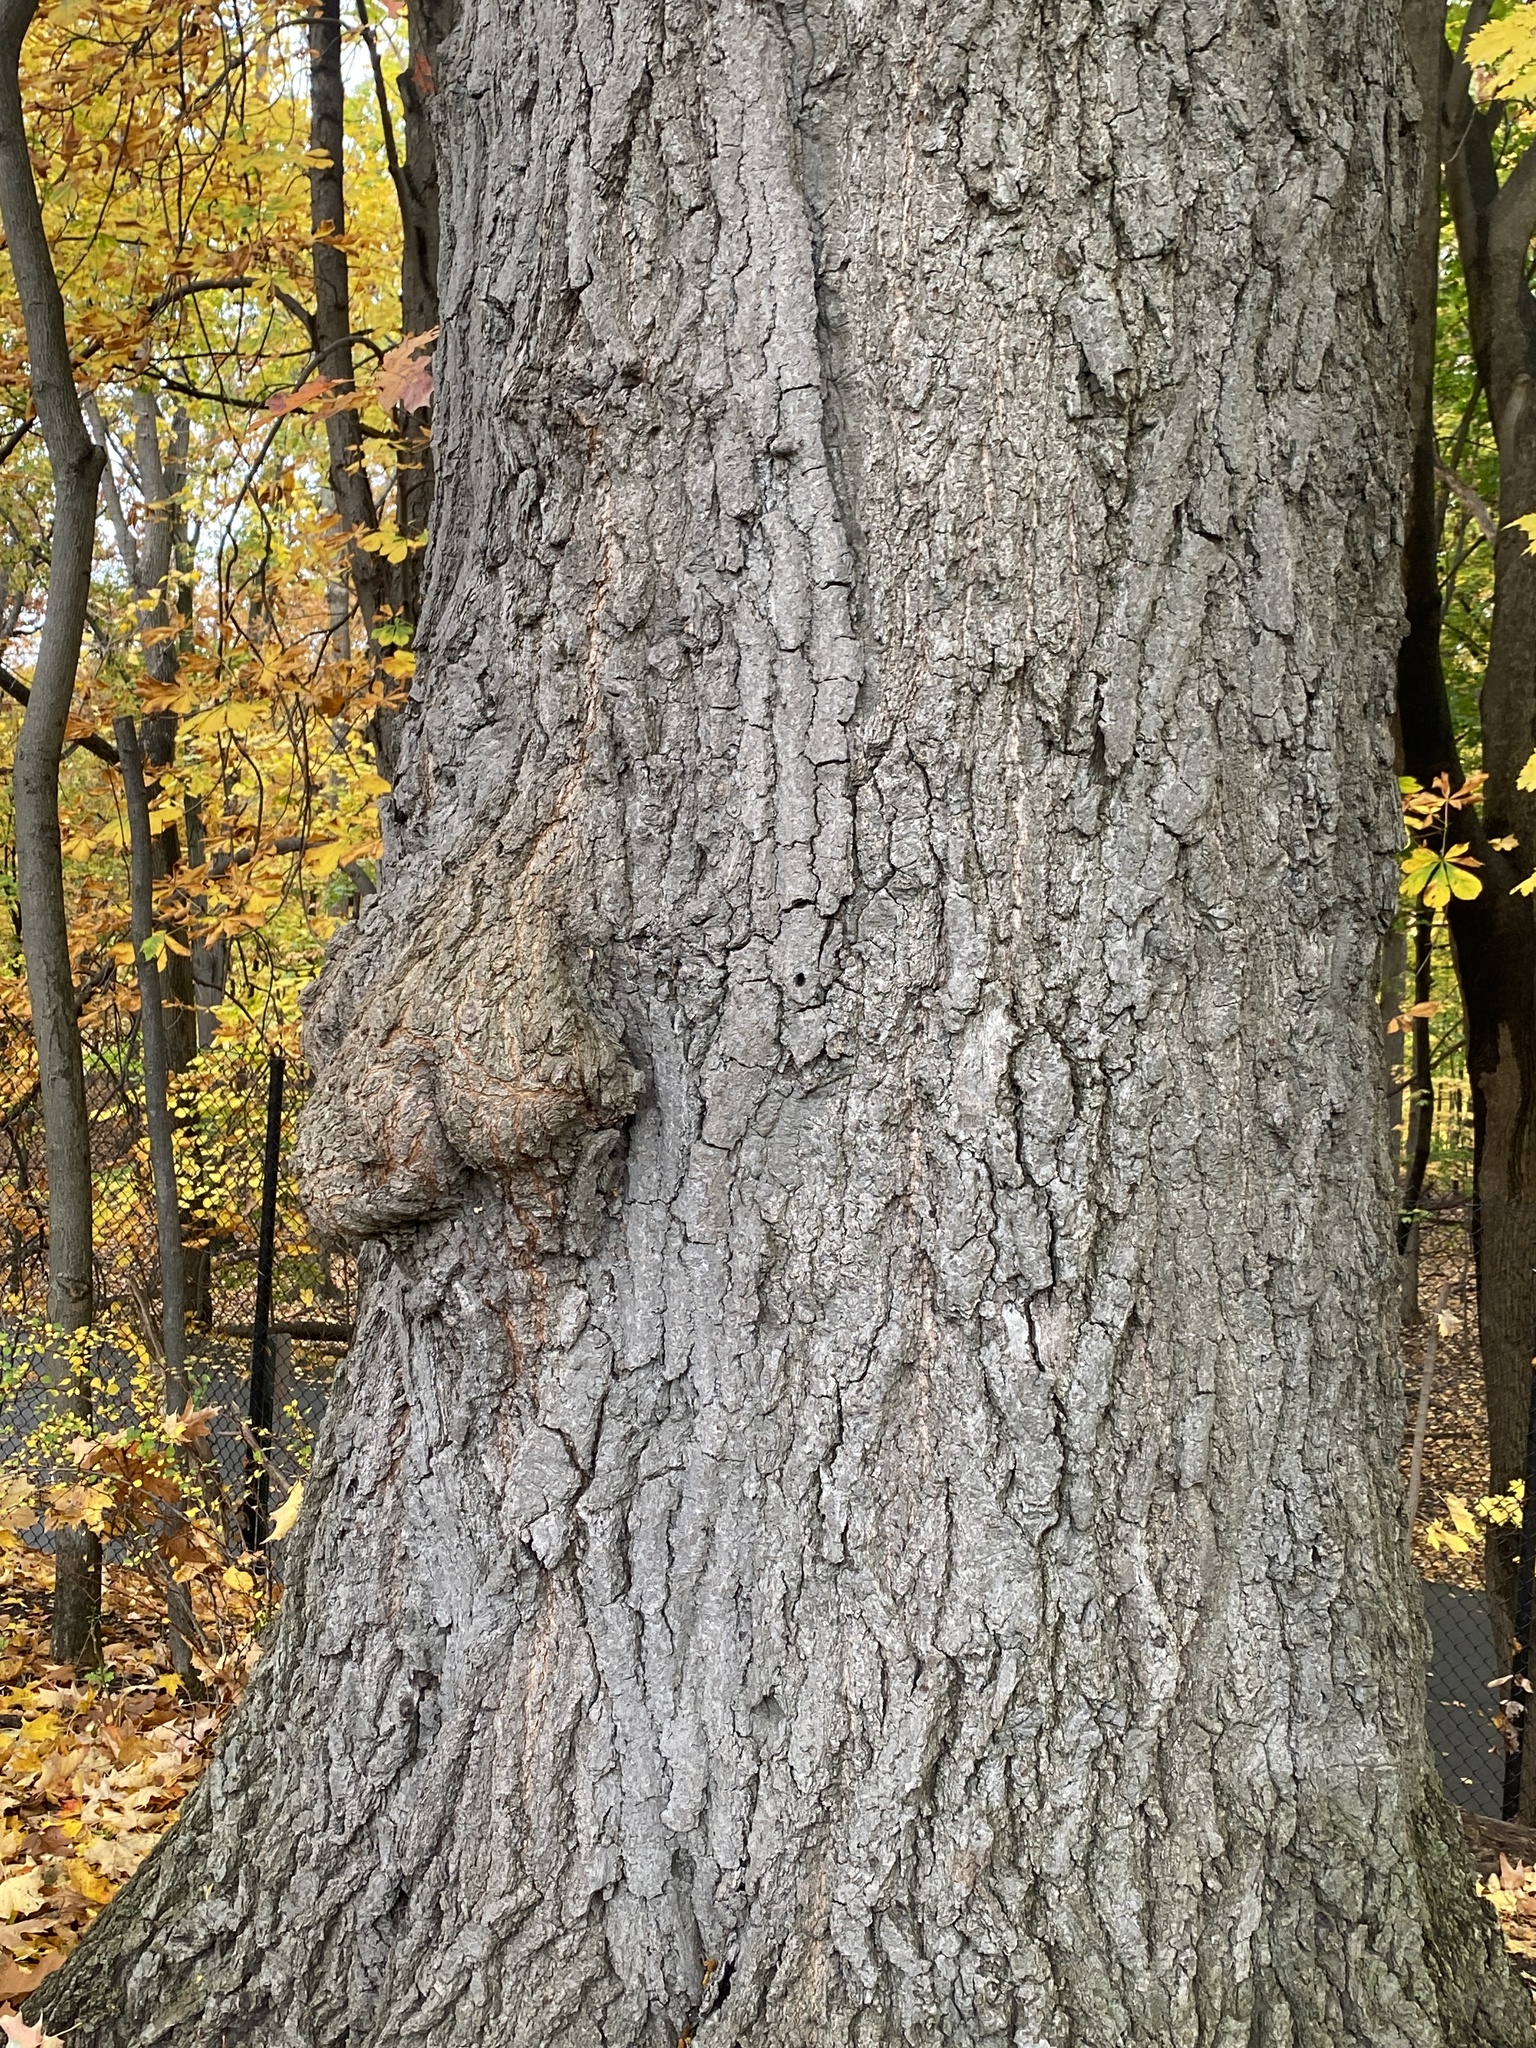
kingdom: Bacteria
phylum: Proteobacteria
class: Alphaproteobacteria
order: Rhizobiales
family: Rhizobiaceae
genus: Rhizobium
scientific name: Rhizobium Agrobacterium radiobacter
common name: Bacterial crown gall
